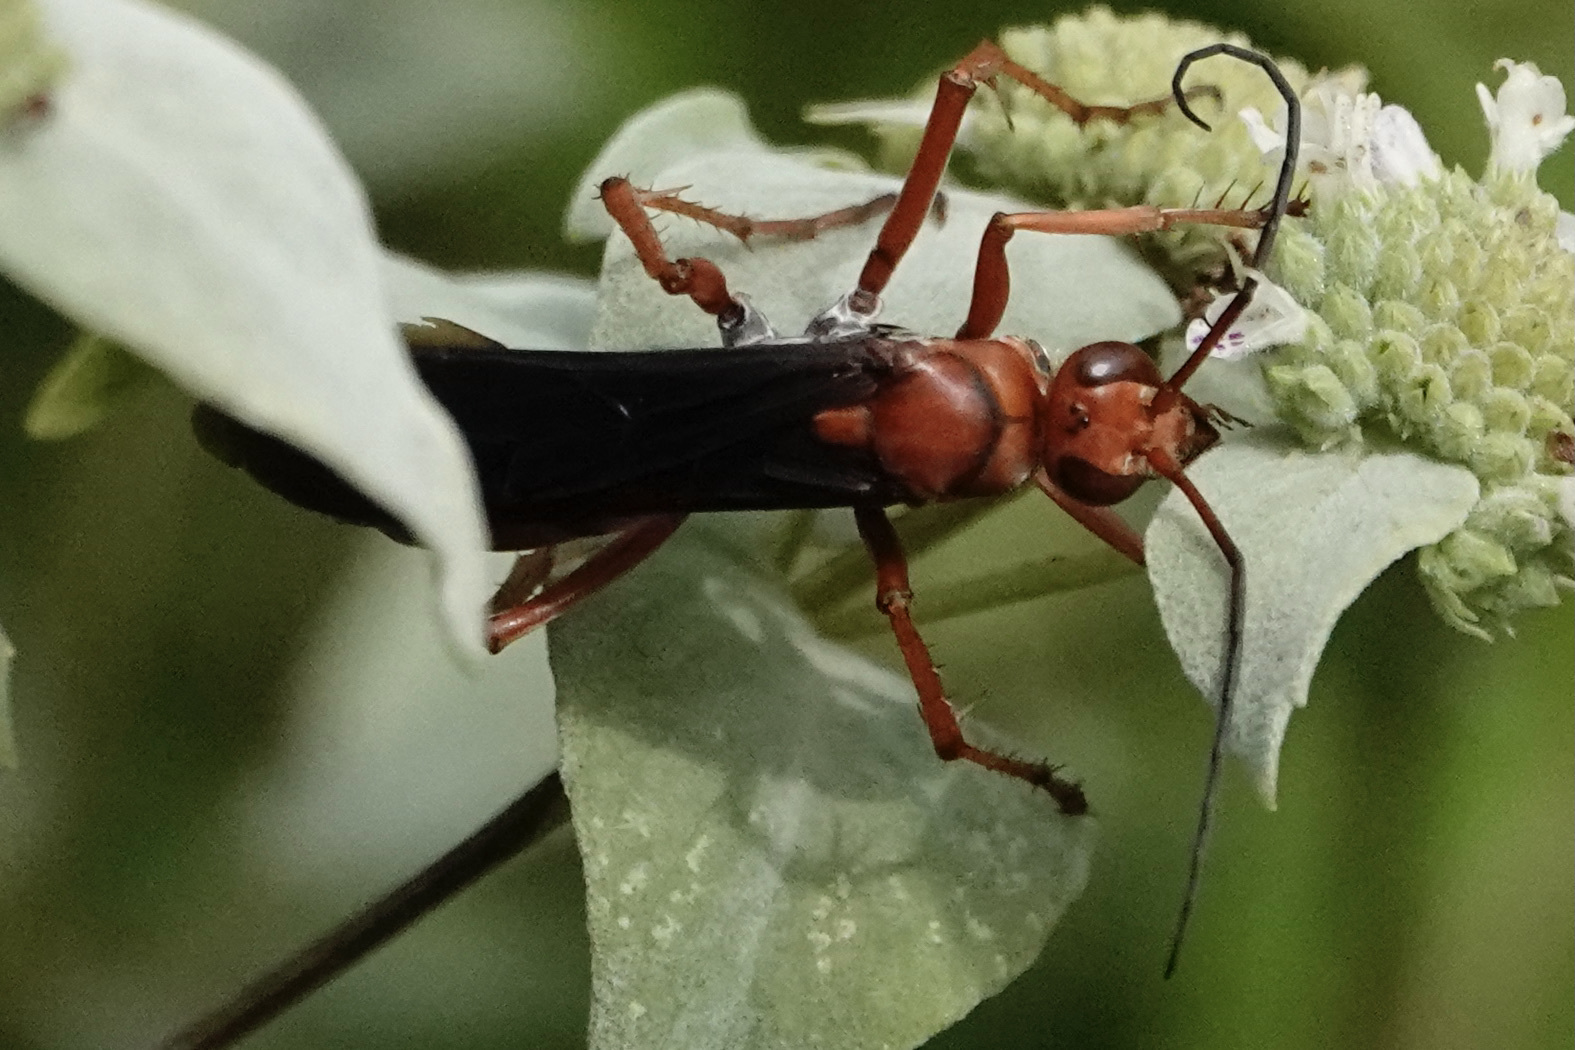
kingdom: Animalia
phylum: Arthropoda
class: Insecta
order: Hymenoptera
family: Pompilidae
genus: Tachypompilus
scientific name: Tachypompilus ferrugineus
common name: Rusty spider wasp
